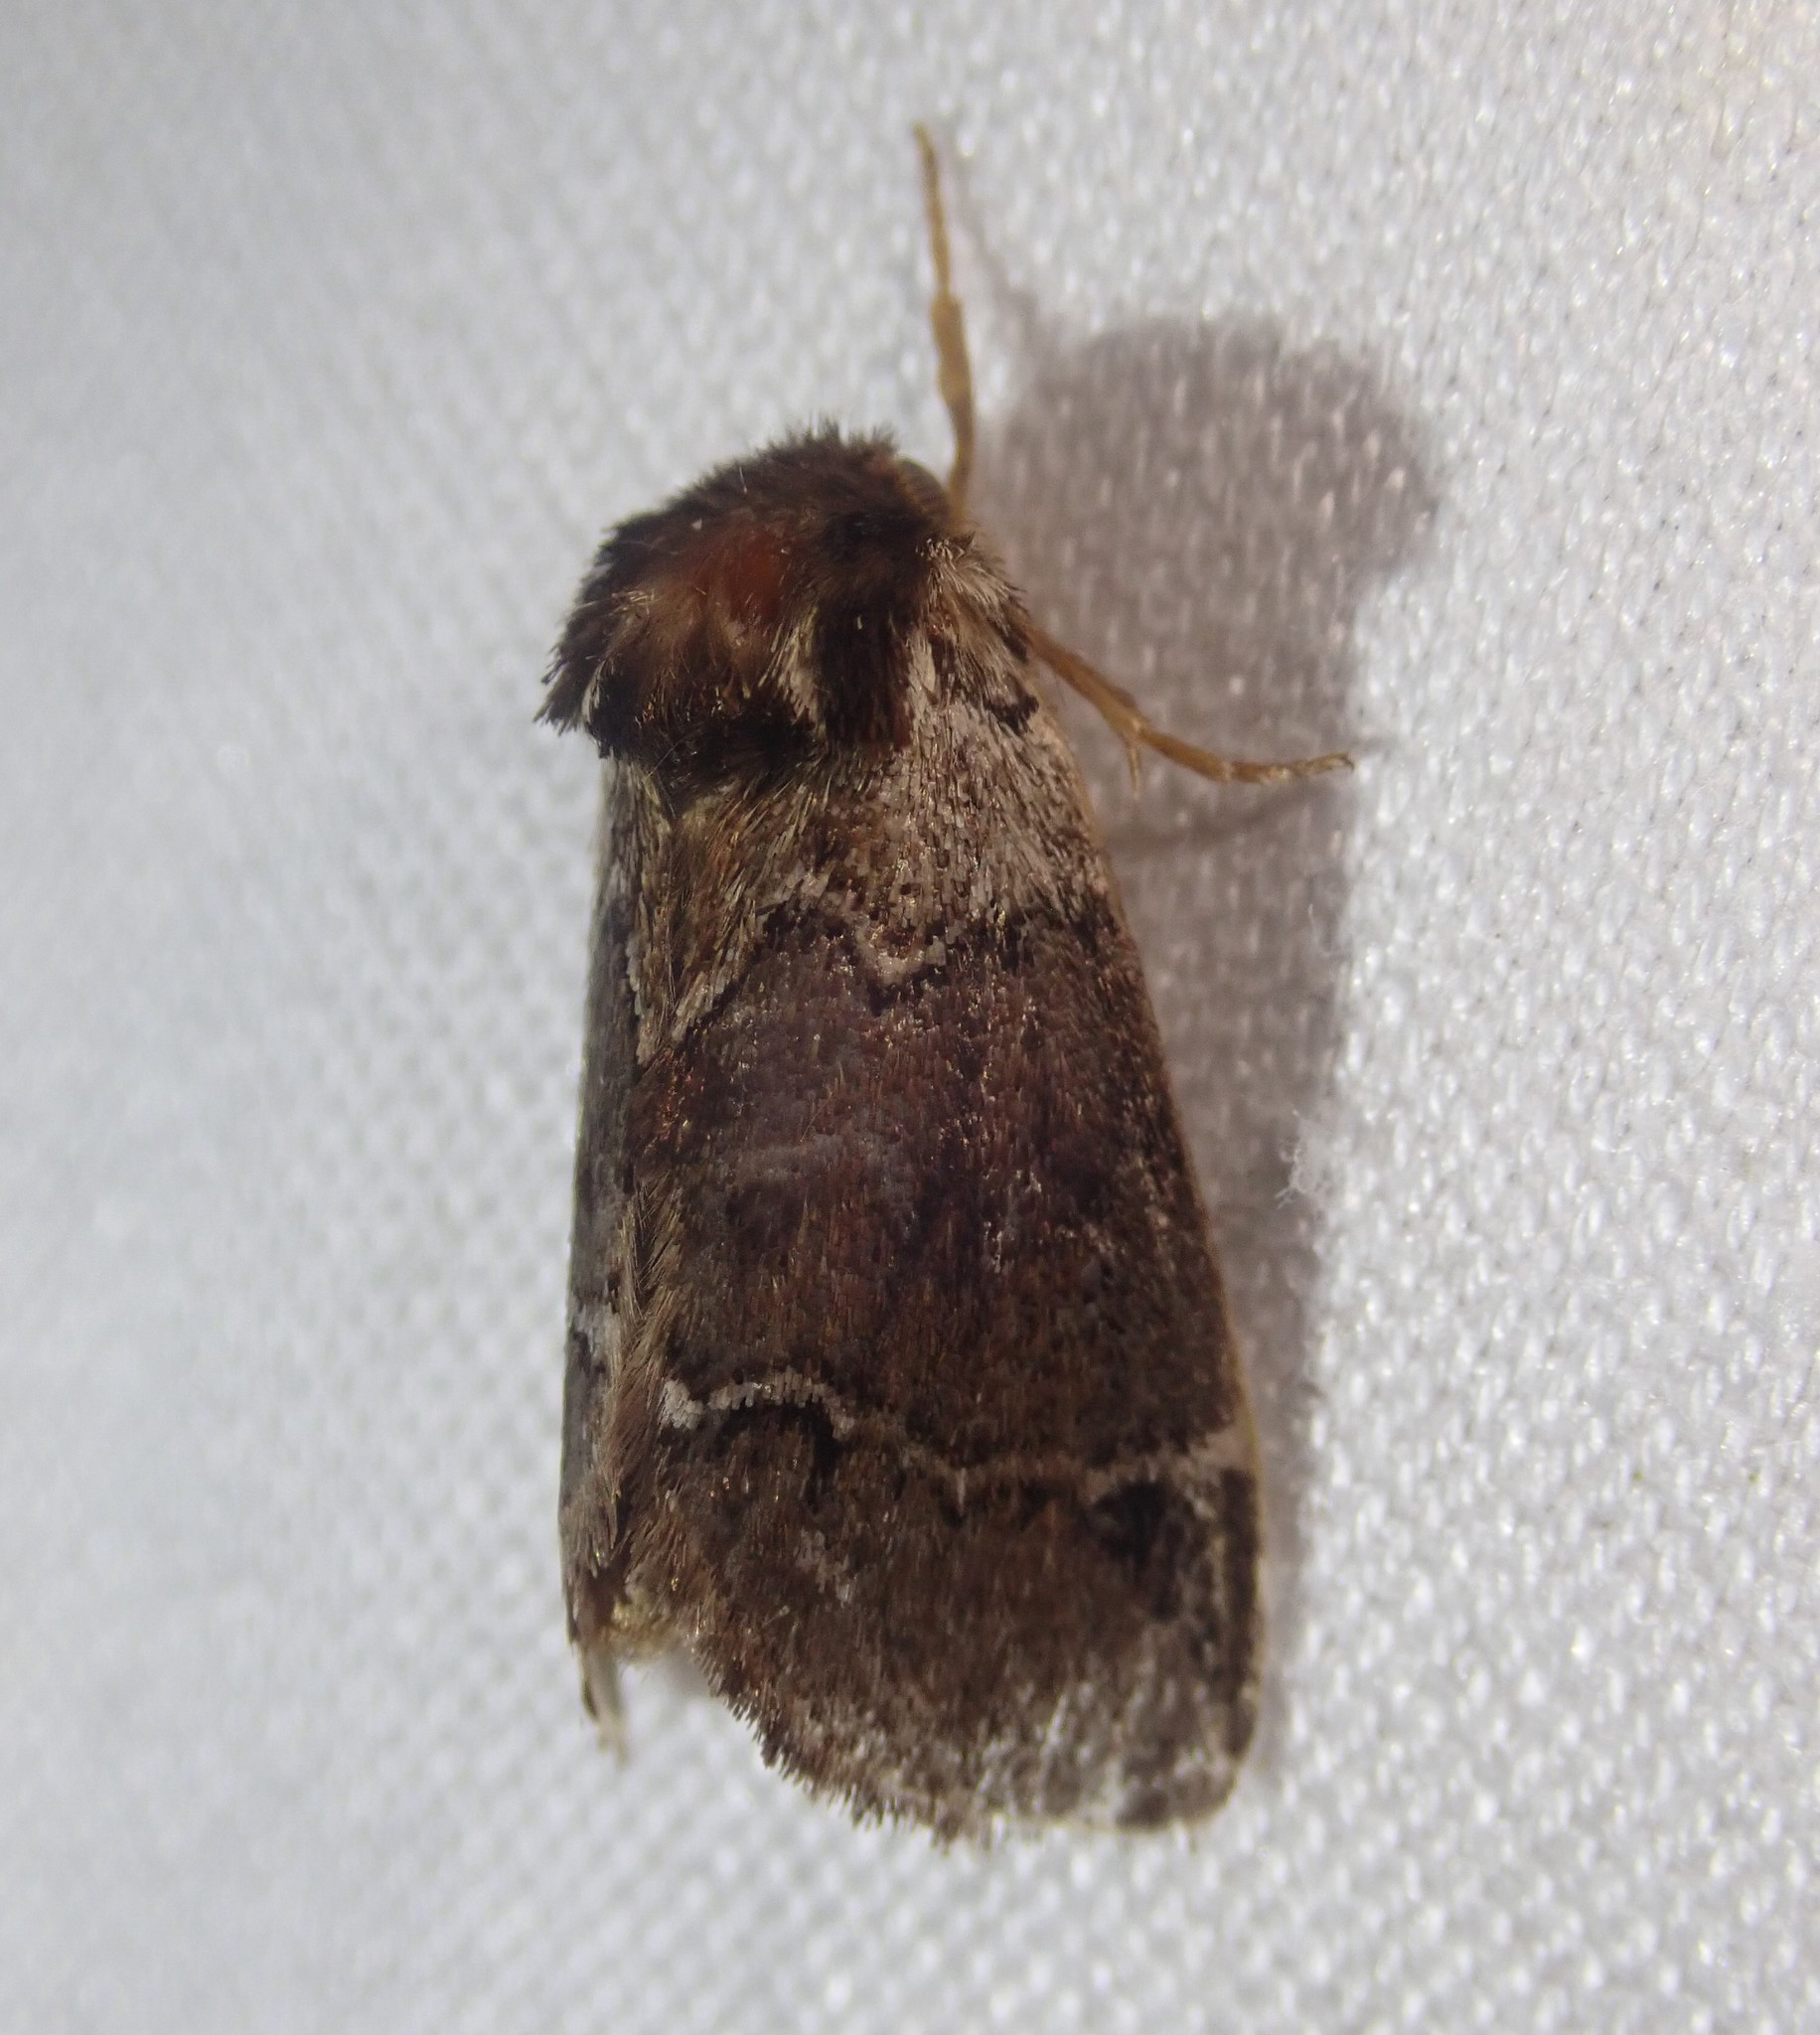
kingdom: Animalia
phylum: Arthropoda
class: Insecta
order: Lepidoptera
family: Notodontidae
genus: Drymonia
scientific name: Drymonia obliterata
